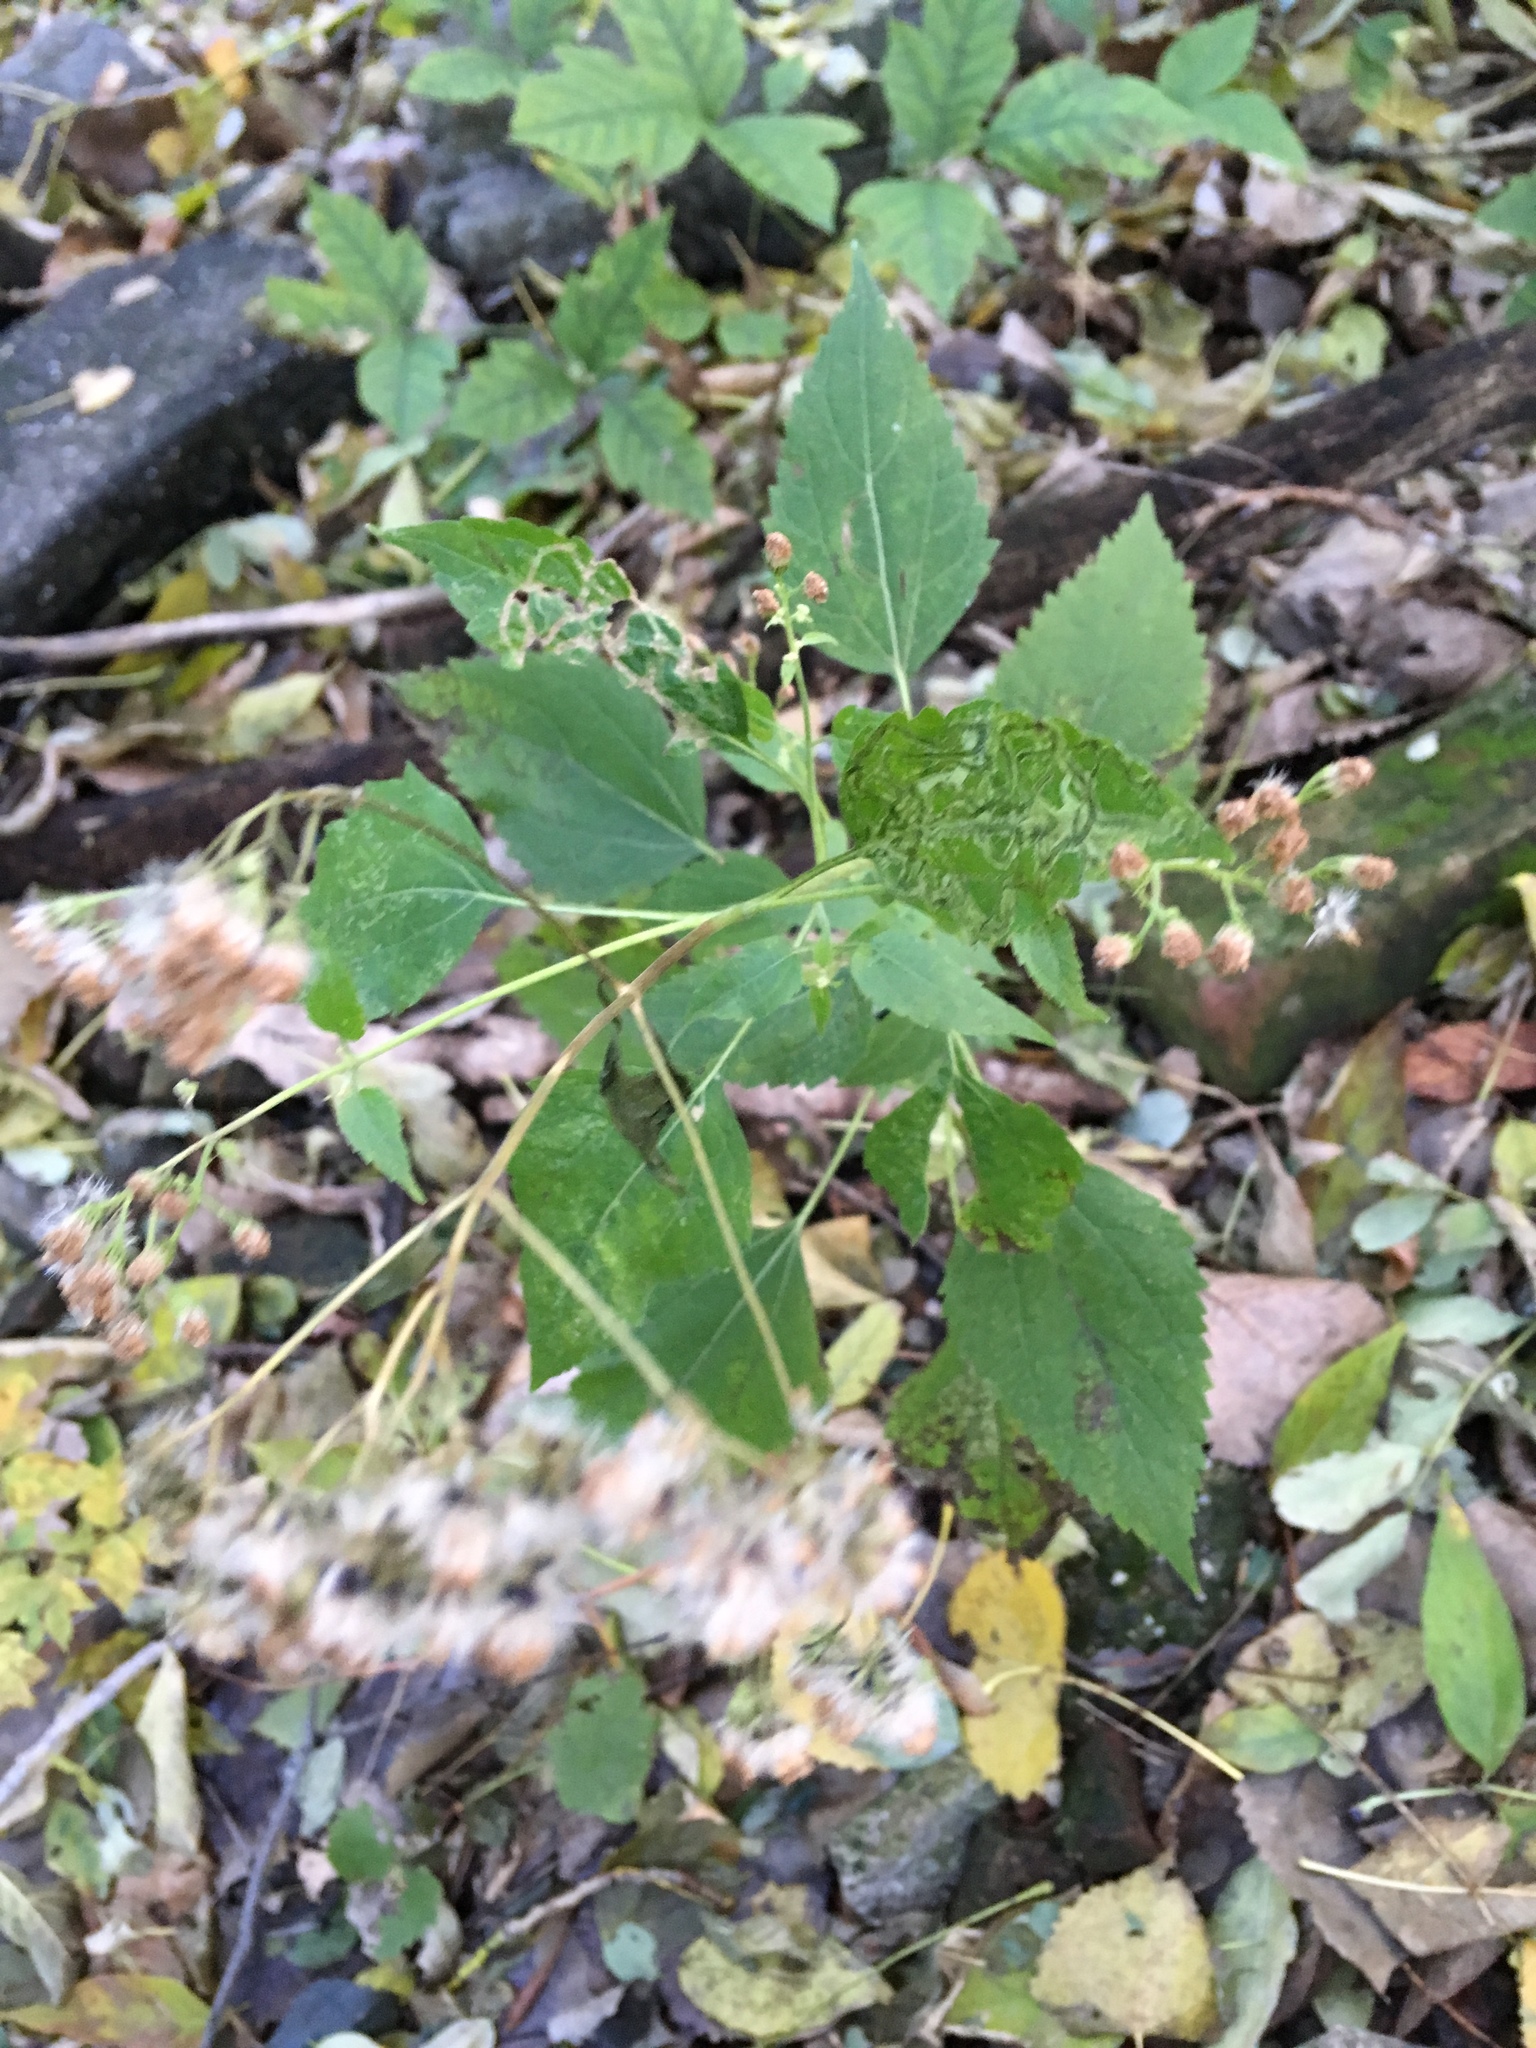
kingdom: Plantae
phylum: Tracheophyta
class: Magnoliopsida
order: Asterales
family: Asteraceae
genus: Ageratina
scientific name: Ageratina altissima
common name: White snakeroot
